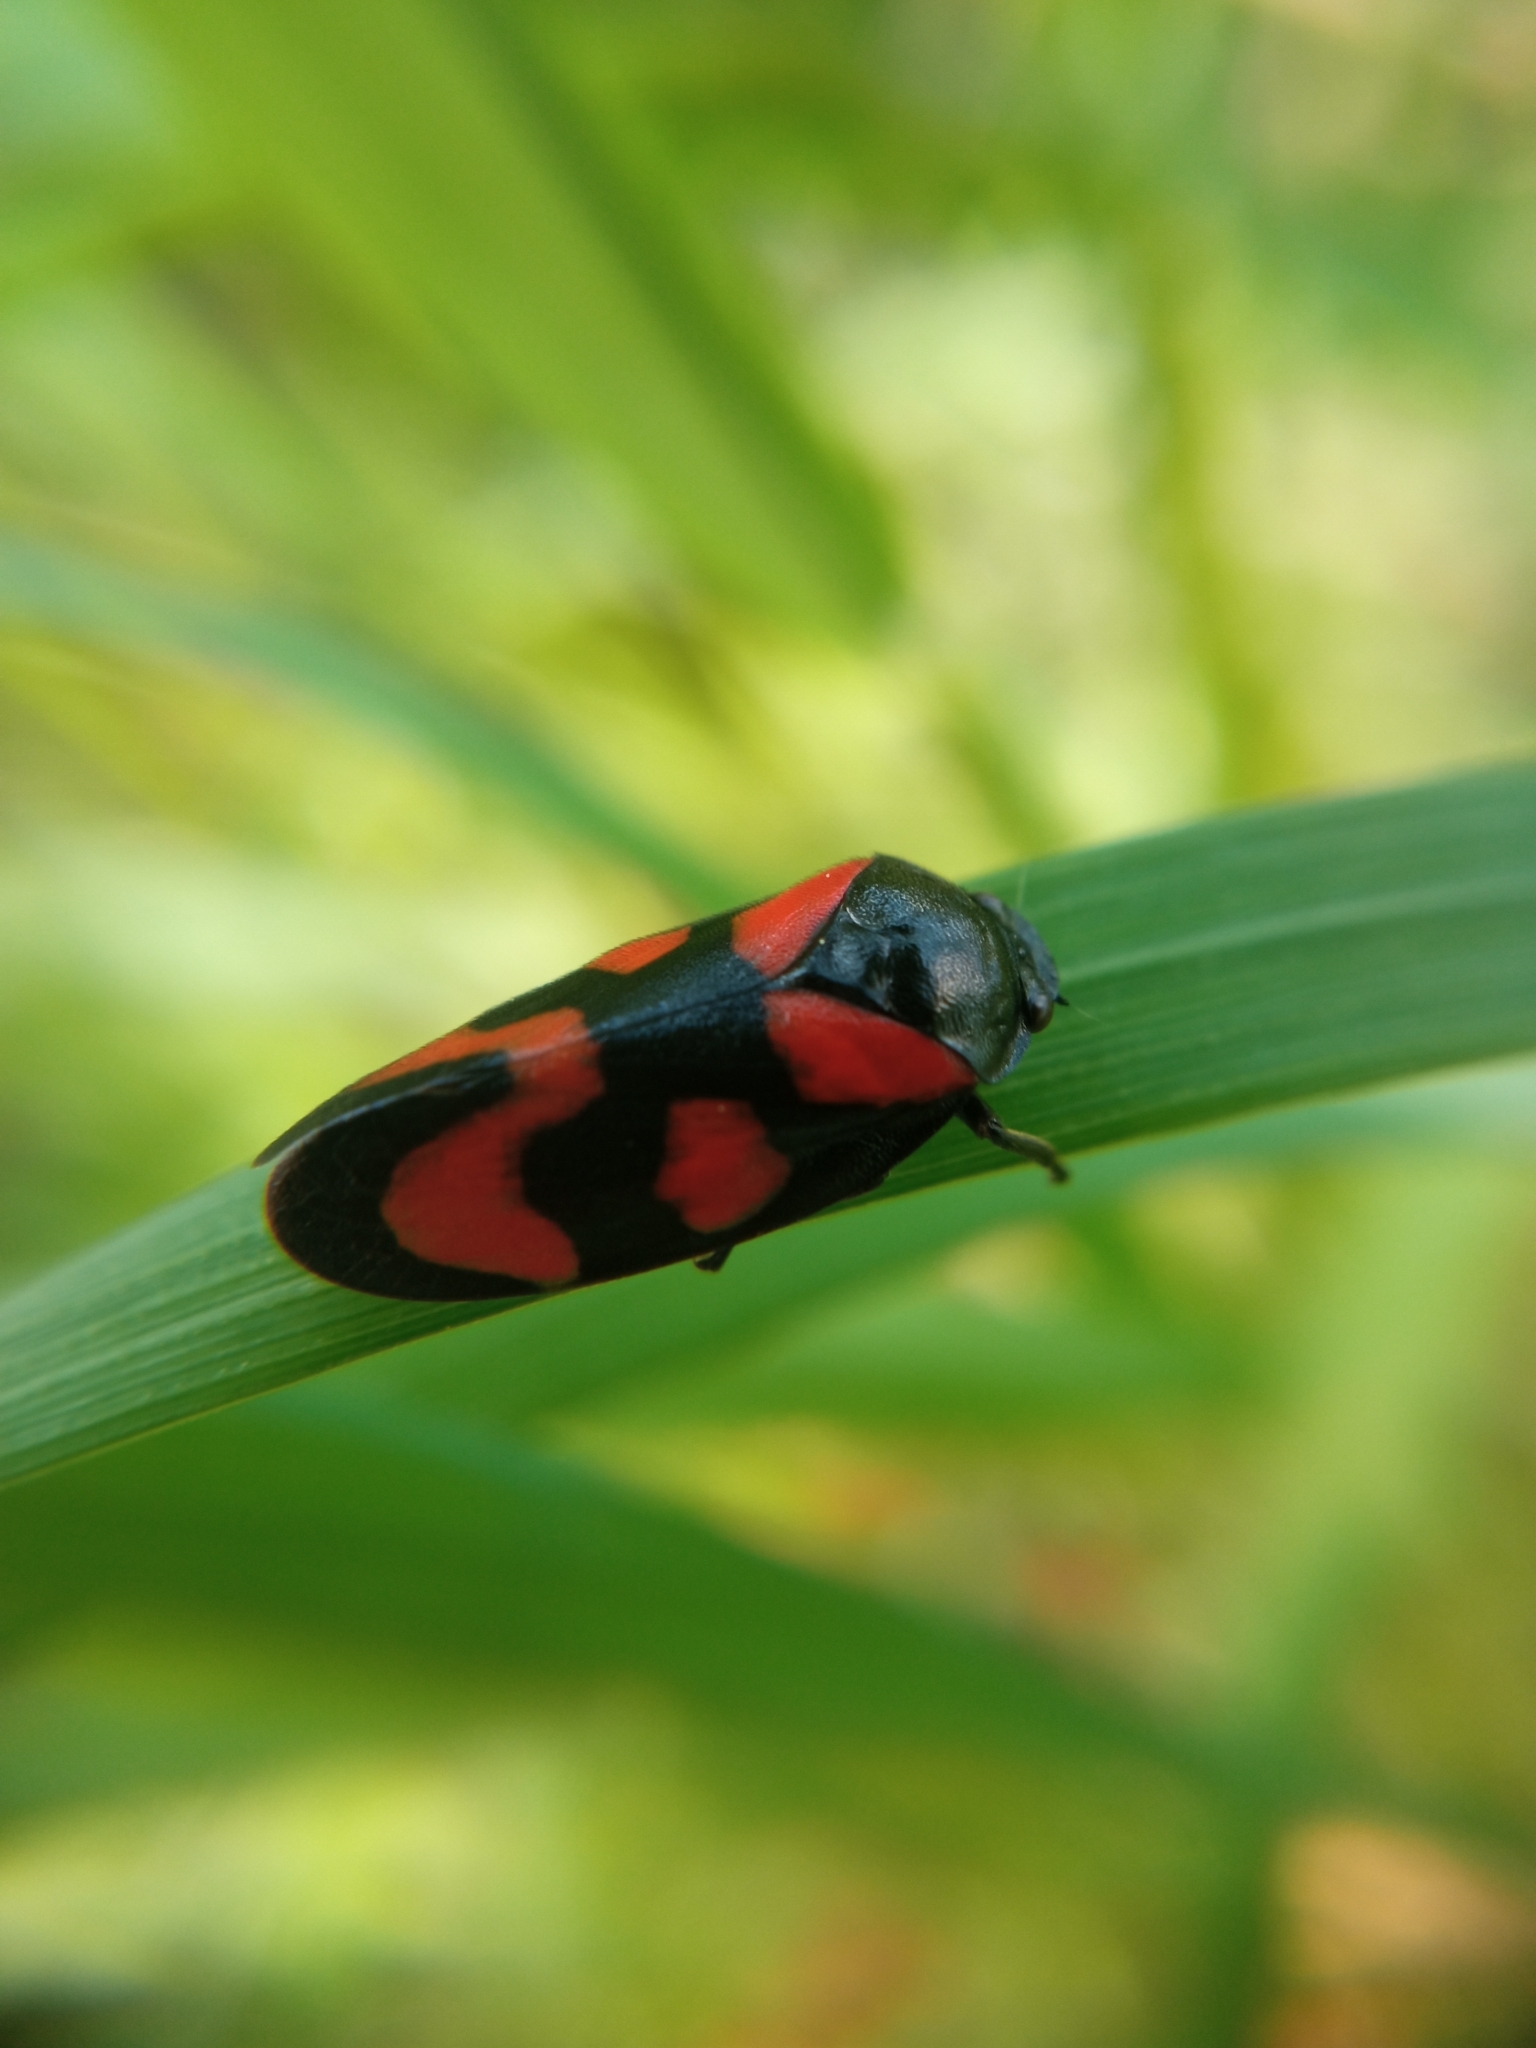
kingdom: Animalia
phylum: Arthropoda
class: Insecta
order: Hemiptera
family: Cercopidae
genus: Cercopis
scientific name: Cercopis vulnerata
